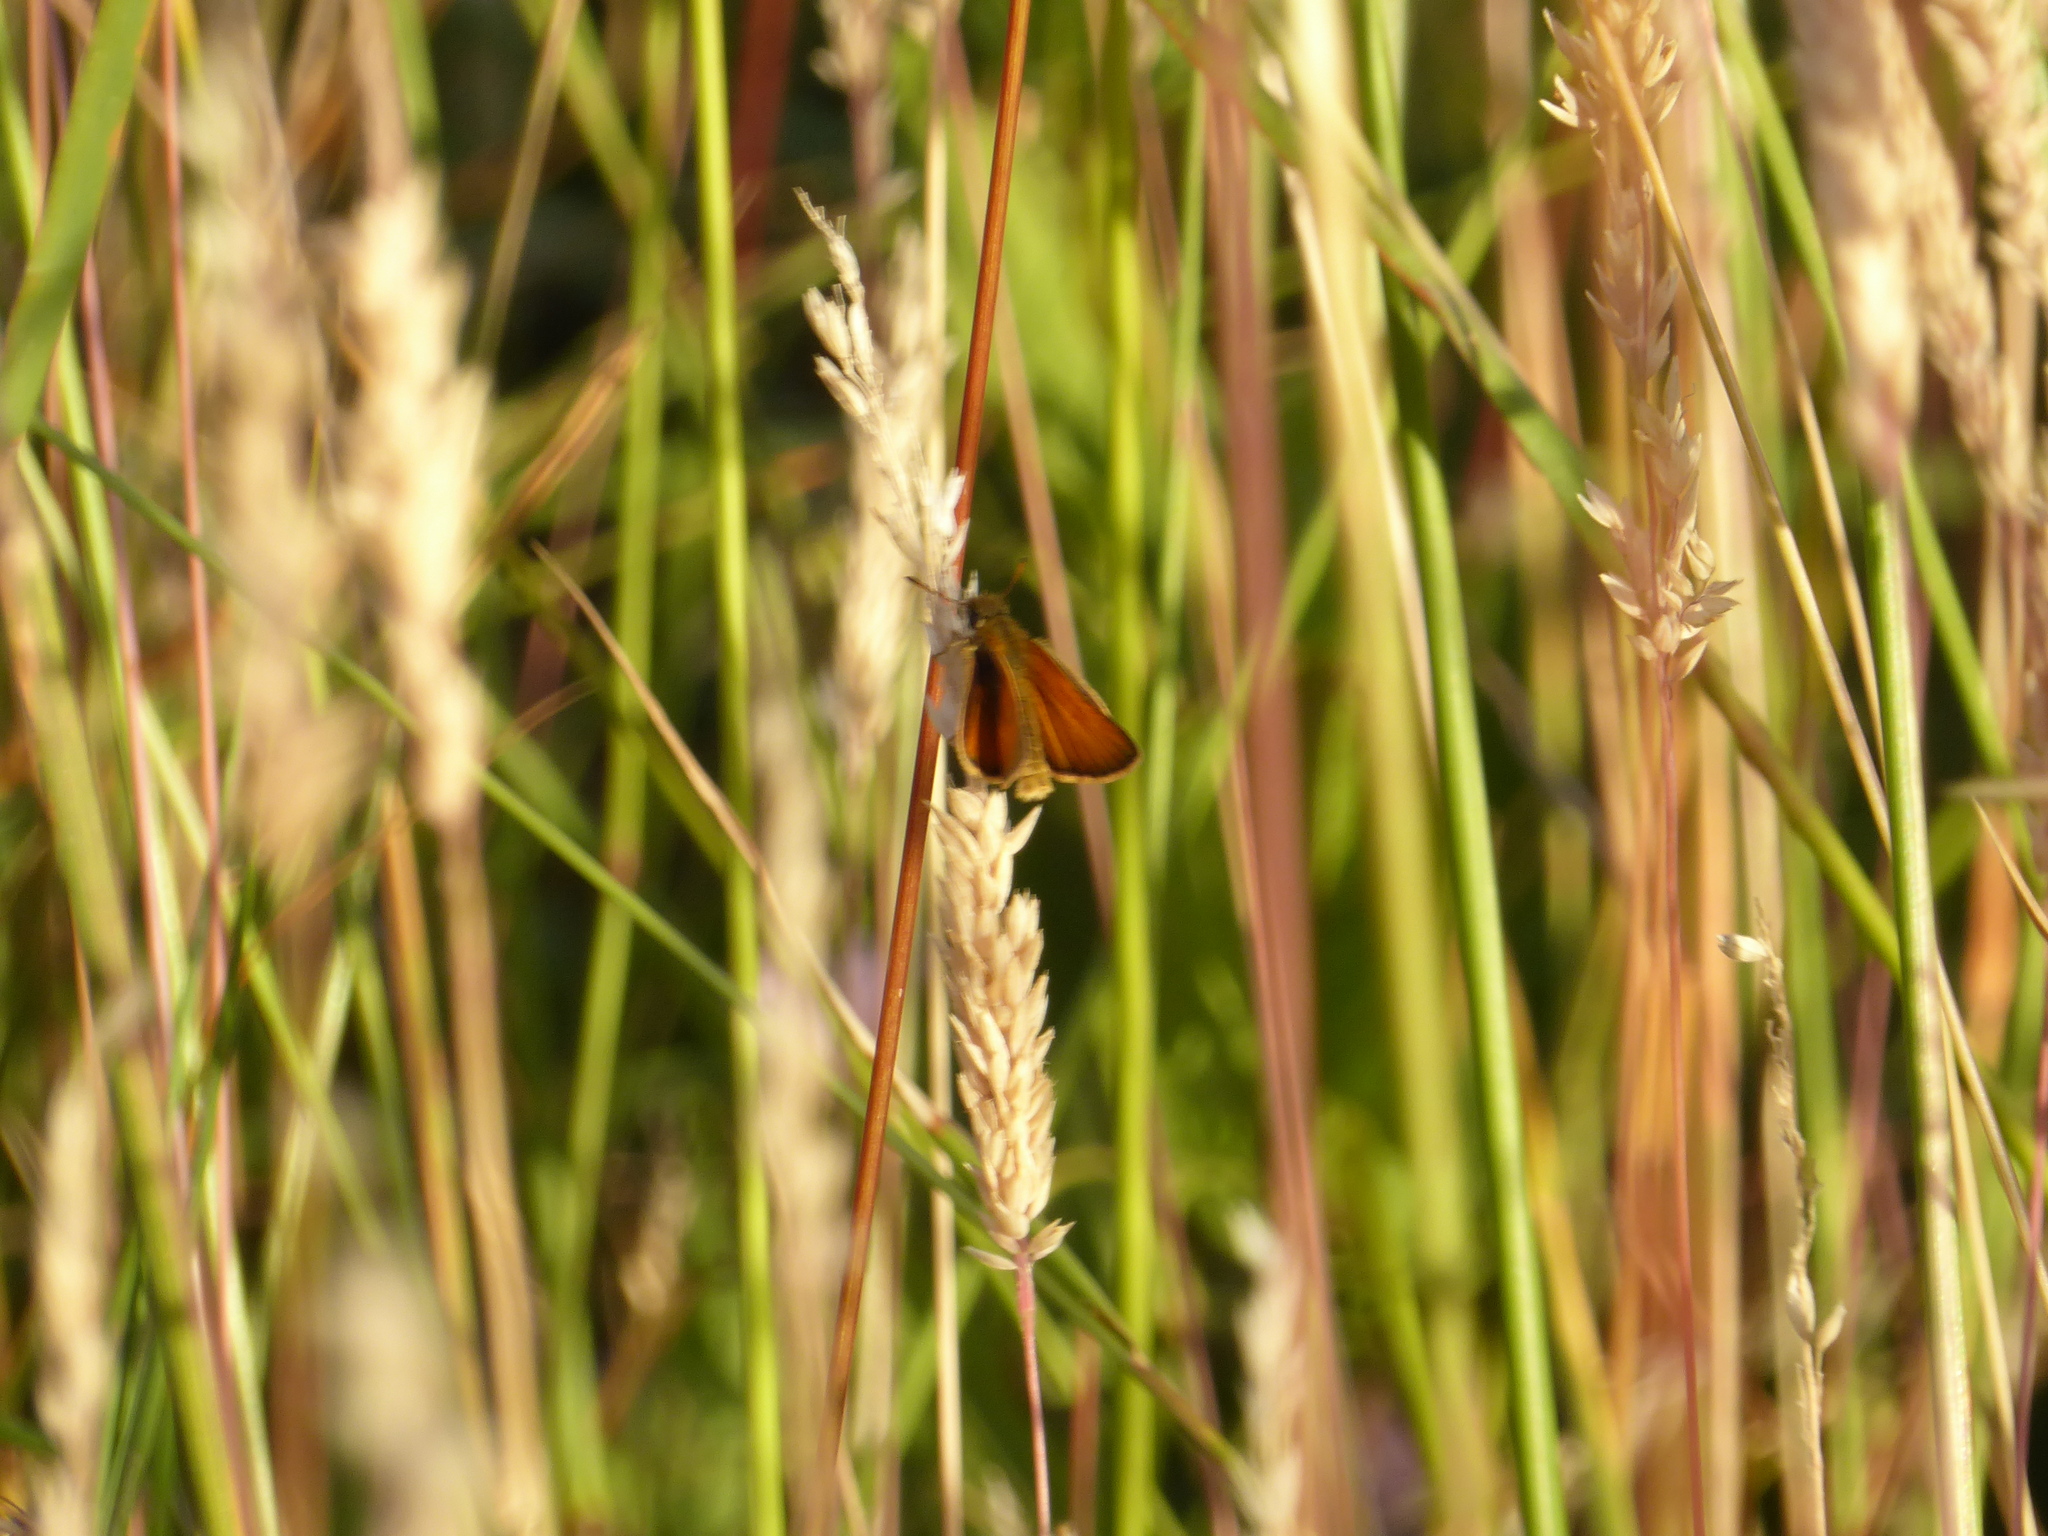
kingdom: Animalia
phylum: Arthropoda
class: Insecta
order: Lepidoptera
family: Hesperiidae
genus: Thymelicus
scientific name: Thymelicus
